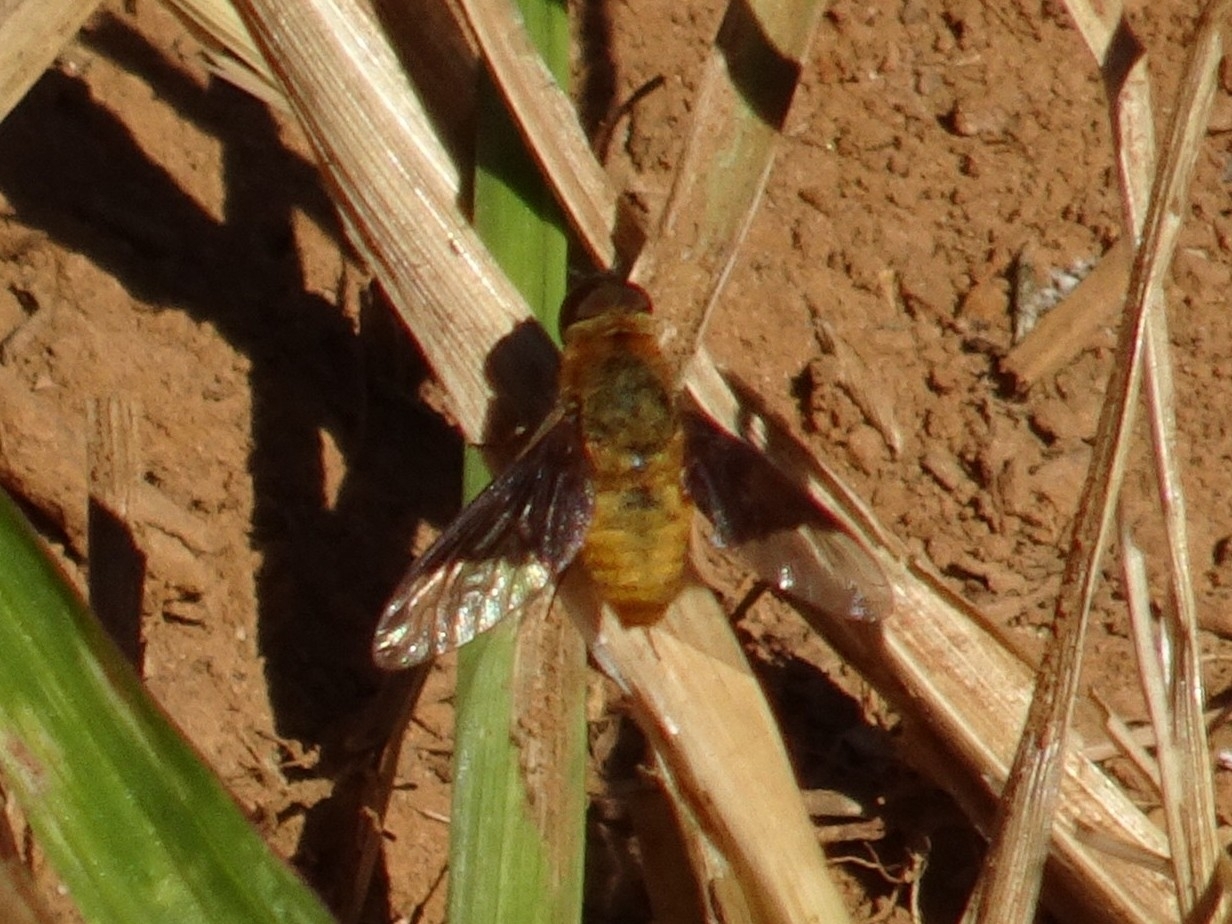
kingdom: Animalia
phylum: Arthropoda
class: Insecta
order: Diptera
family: Bombyliidae
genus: Chrysanthrax
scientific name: Chrysanthrax cypris
